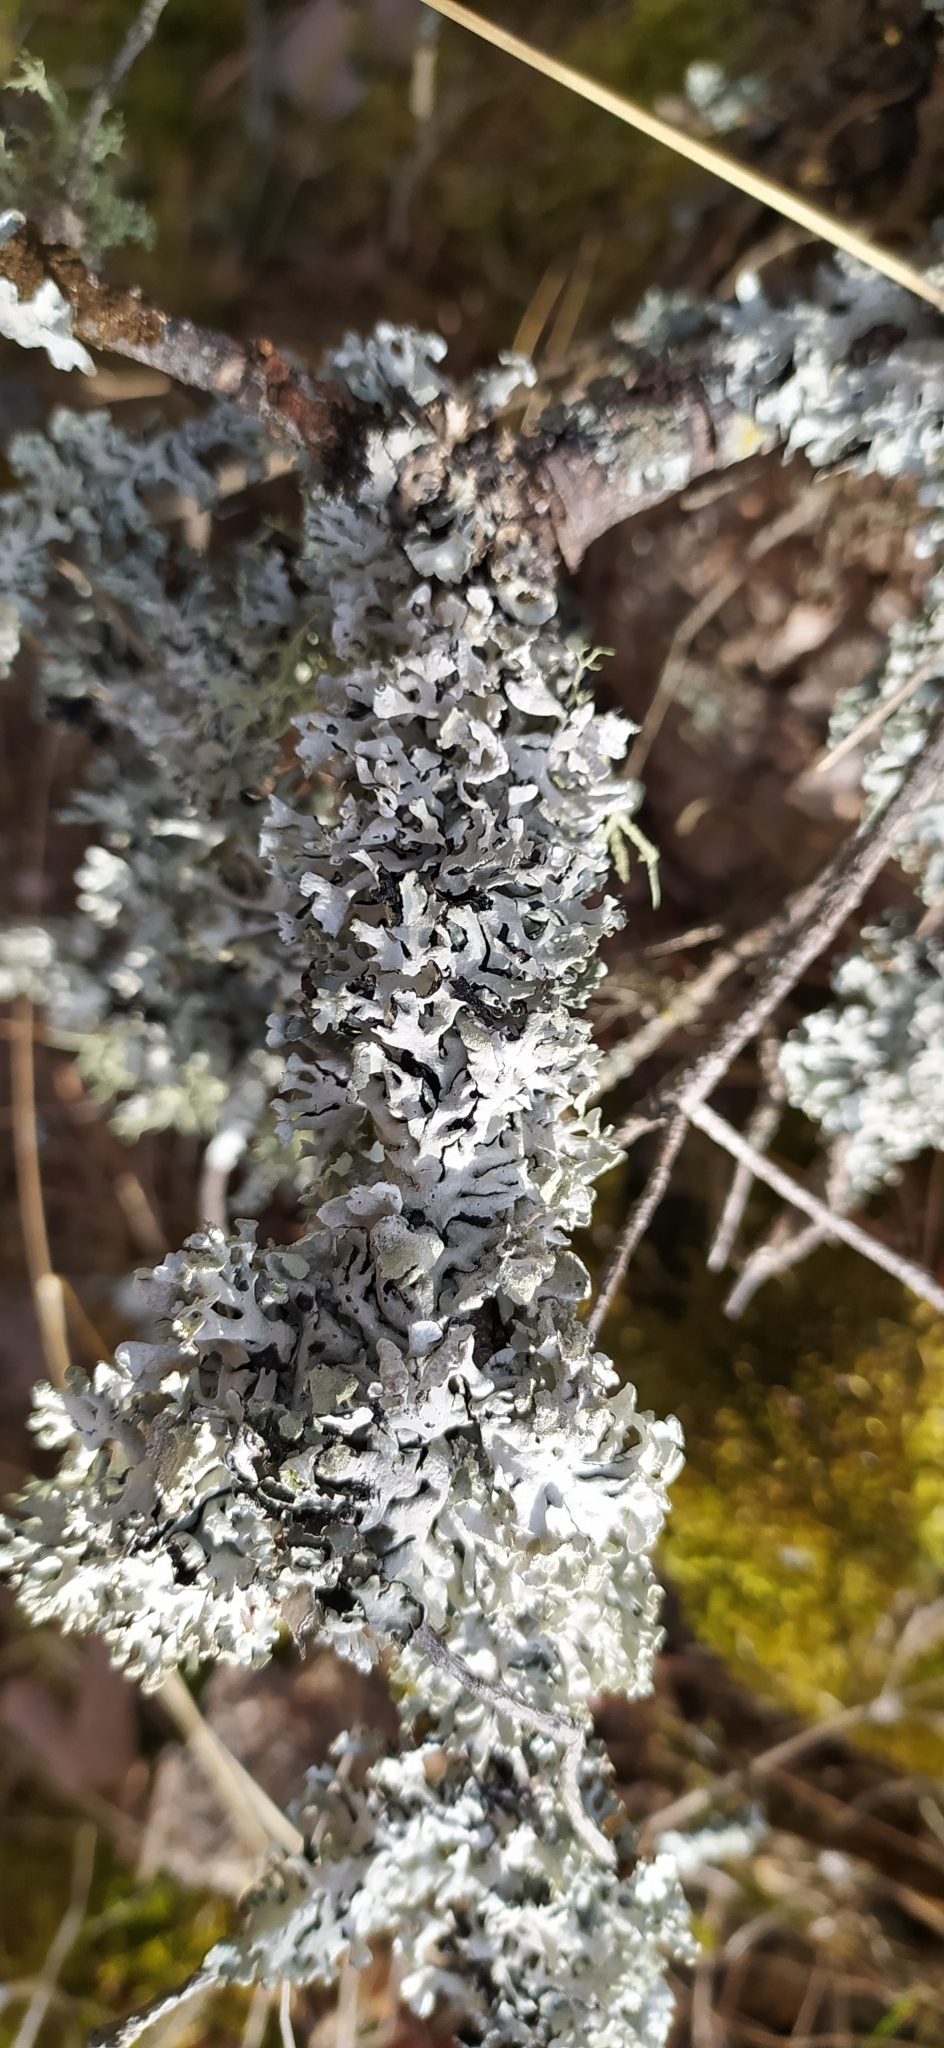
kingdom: Fungi
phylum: Ascomycota
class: Lecanoromycetes
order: Lecanorales
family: Parmeliaceae
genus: Hypogymnia
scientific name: Hypogymnia physodes
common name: Dark crottle
